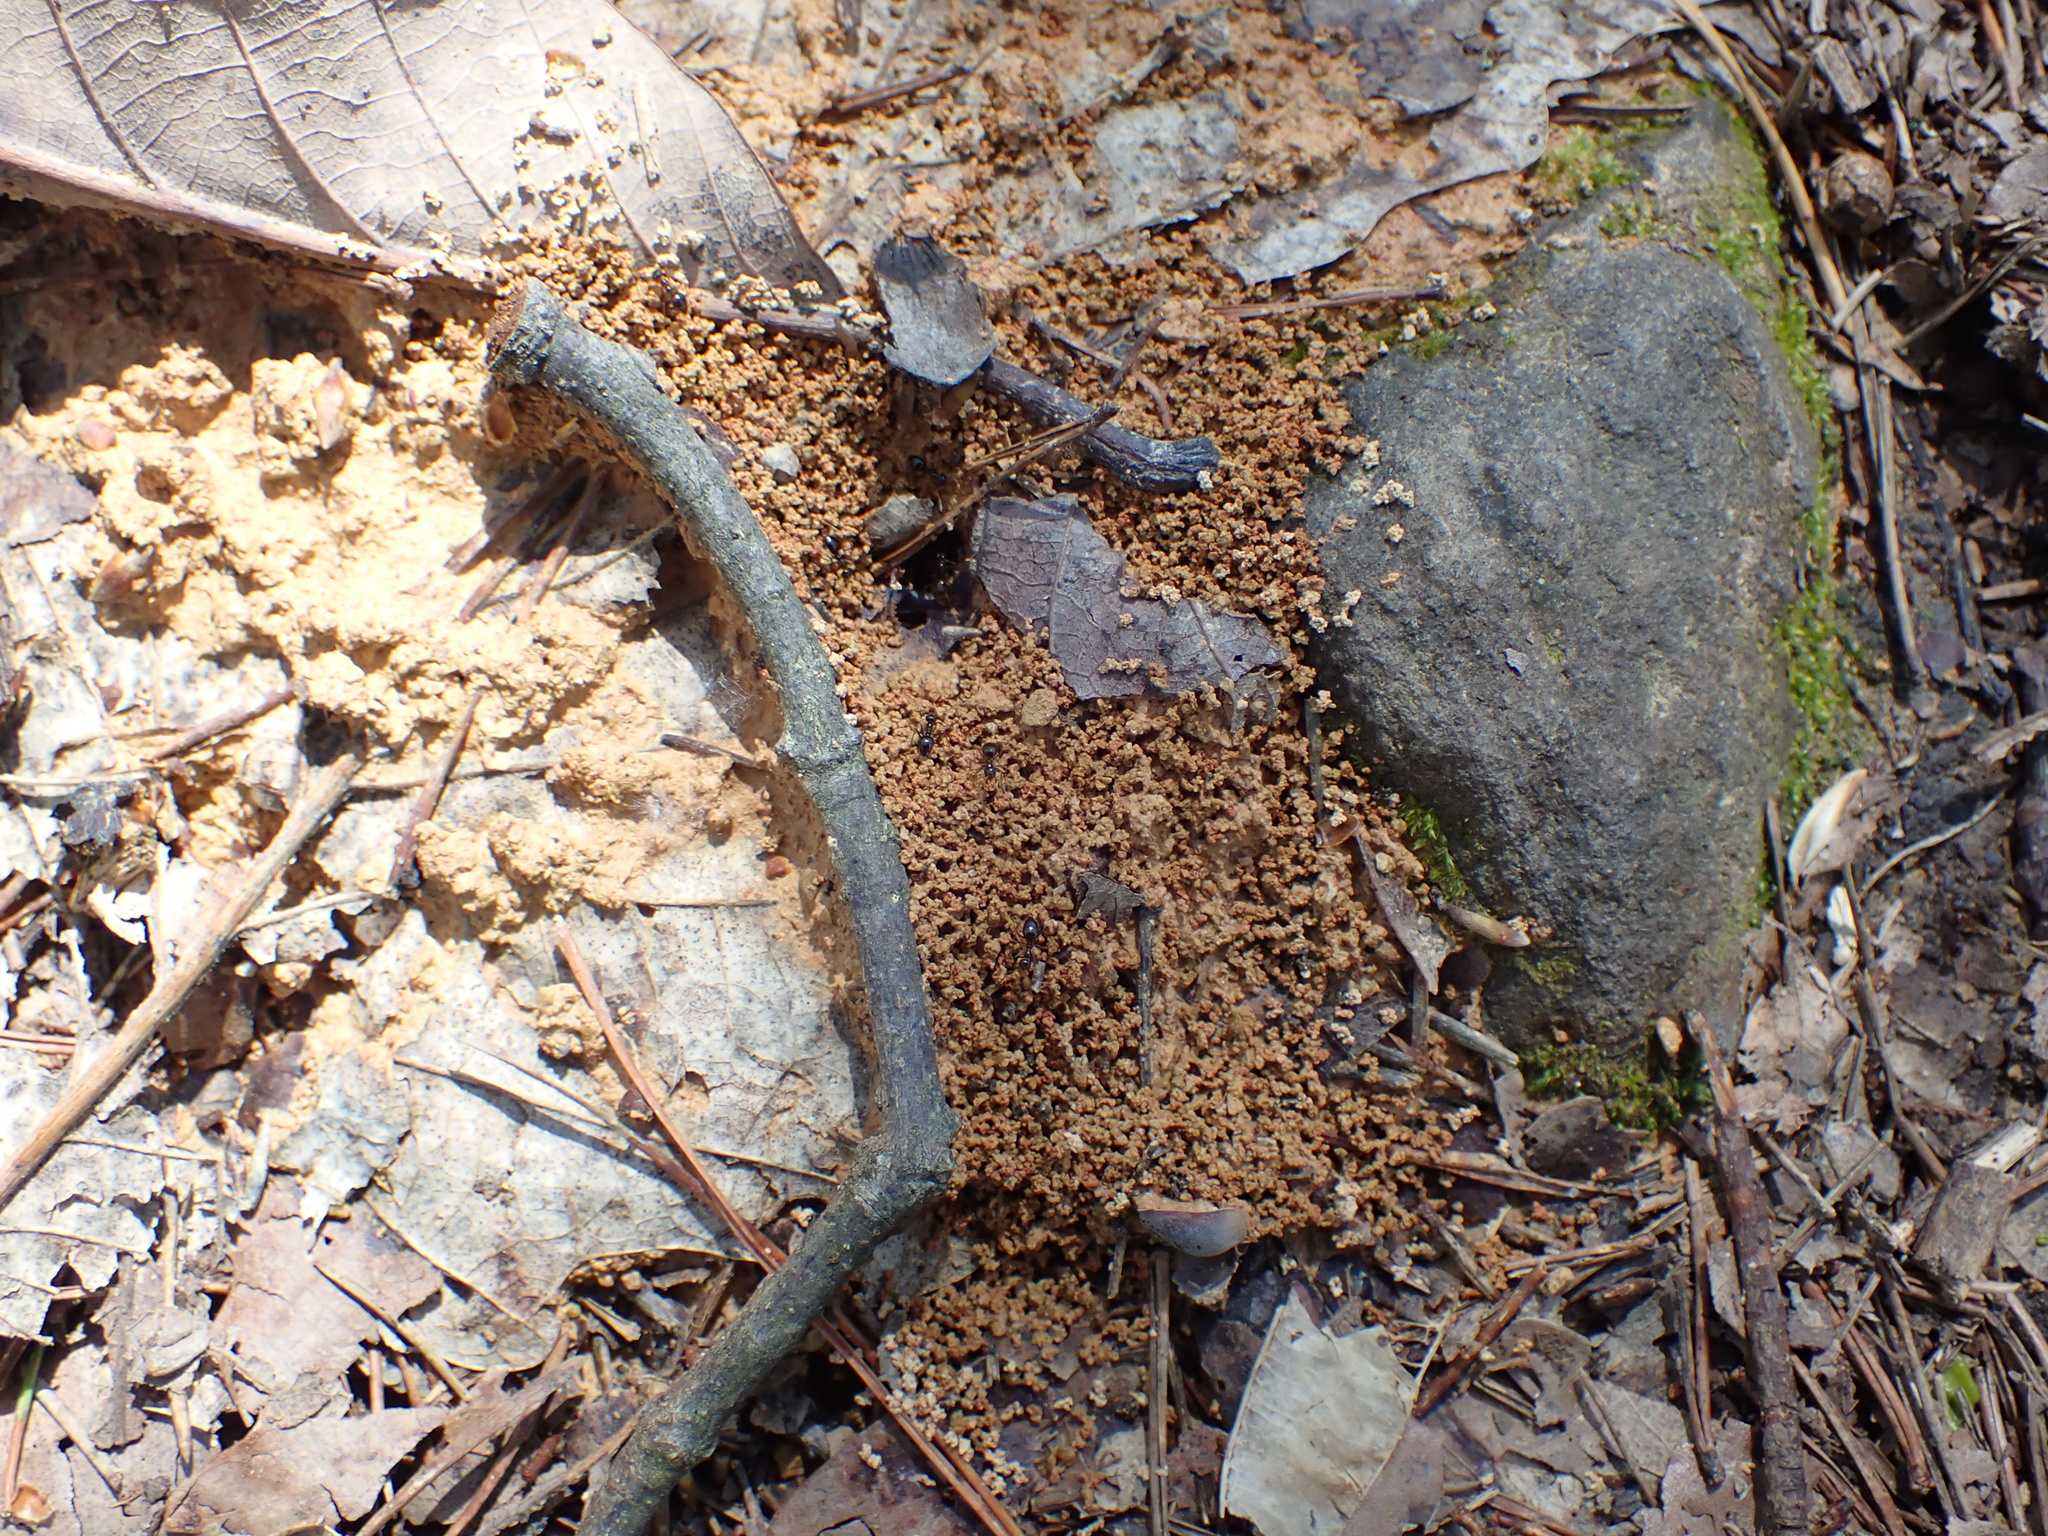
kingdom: Animalia
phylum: Arthropoda
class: Insecta
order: Hymenoptera
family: Formicidae
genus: Prenolepis
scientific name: Prenolepis imparis
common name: Small honey ant
